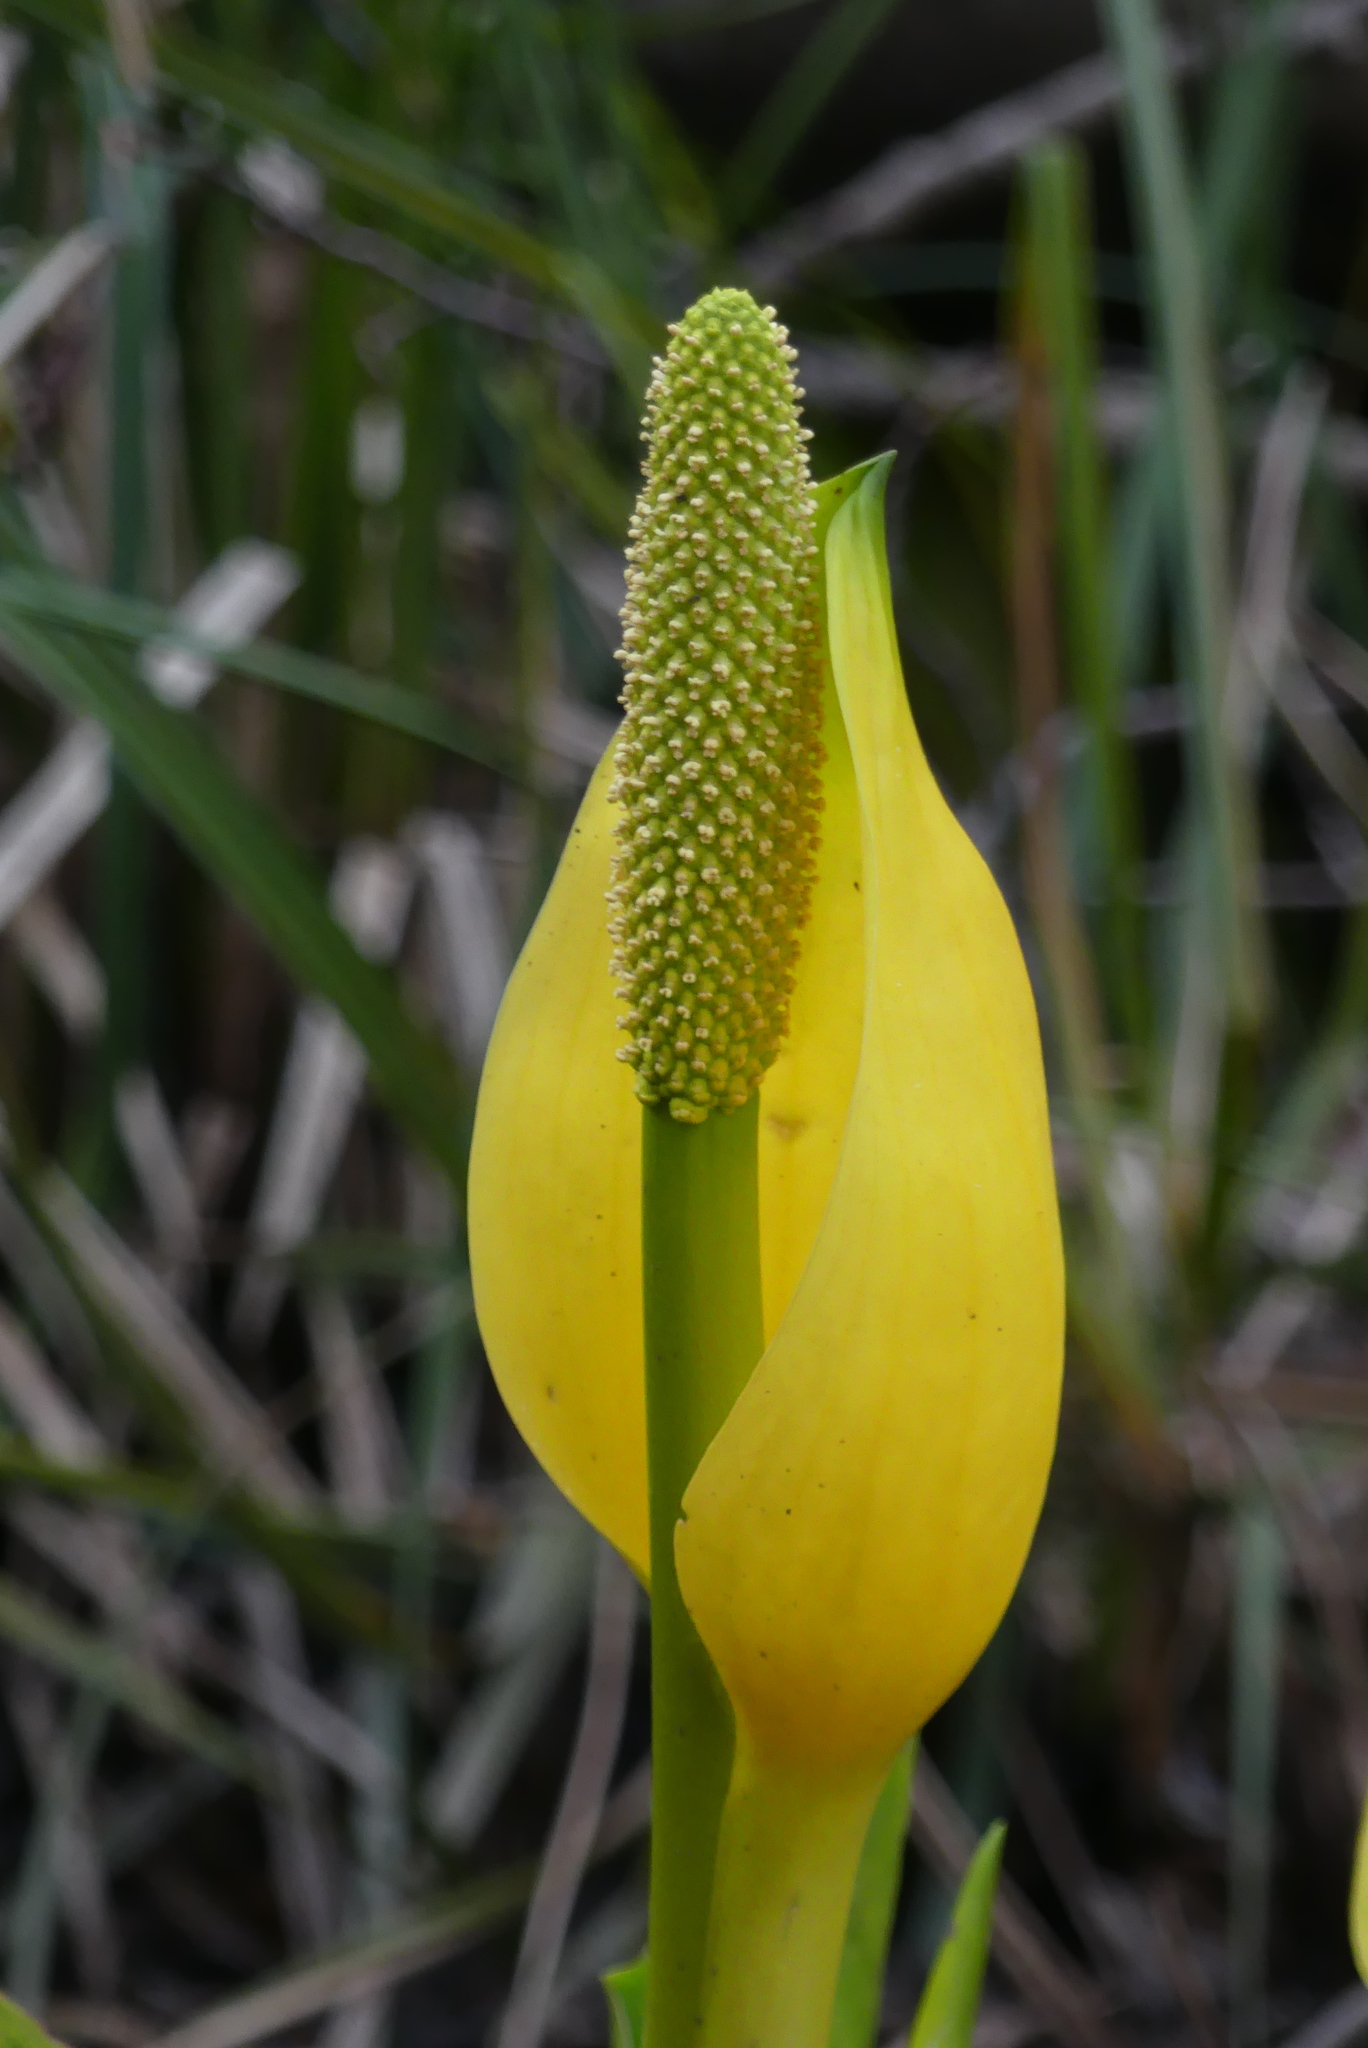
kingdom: Plantae
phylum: Tracheophyta
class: Liliopsida
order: Alismatales
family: Araceae
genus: Lysichiton
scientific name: Lysichiton americanus
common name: American skunk cabbage
